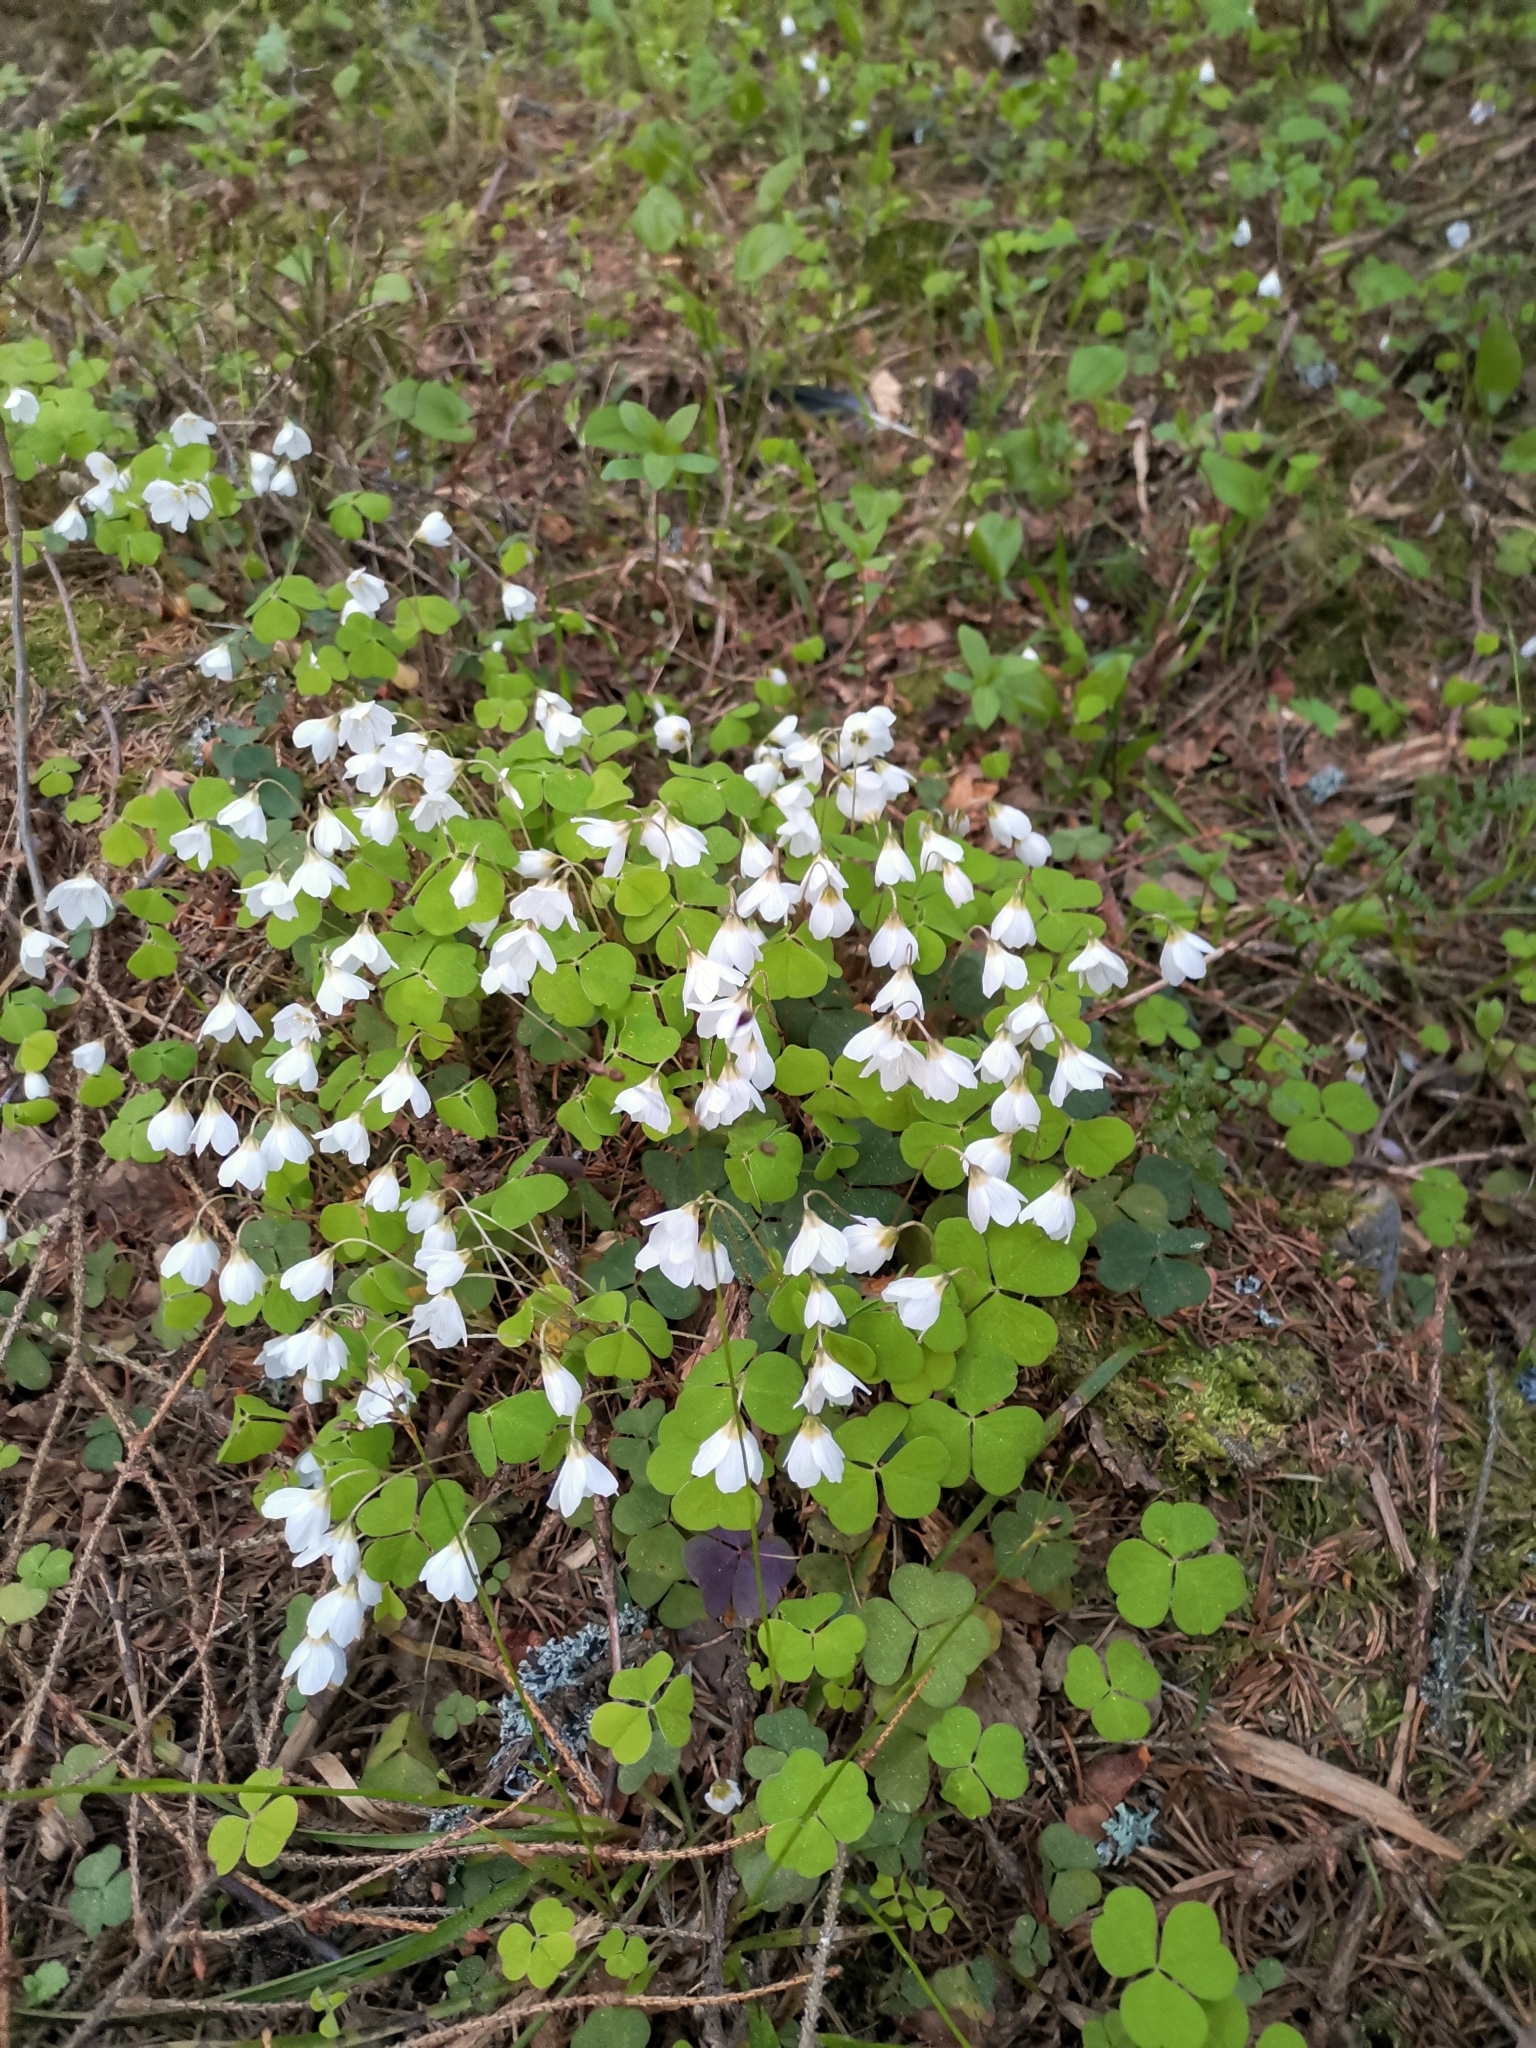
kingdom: Plantae
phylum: Tracheophyta
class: Magnoliopsida
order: Oxalidales
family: Oxalidaceae
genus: Oxalis
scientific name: Oxalis acetosella
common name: Wood-sorrel
